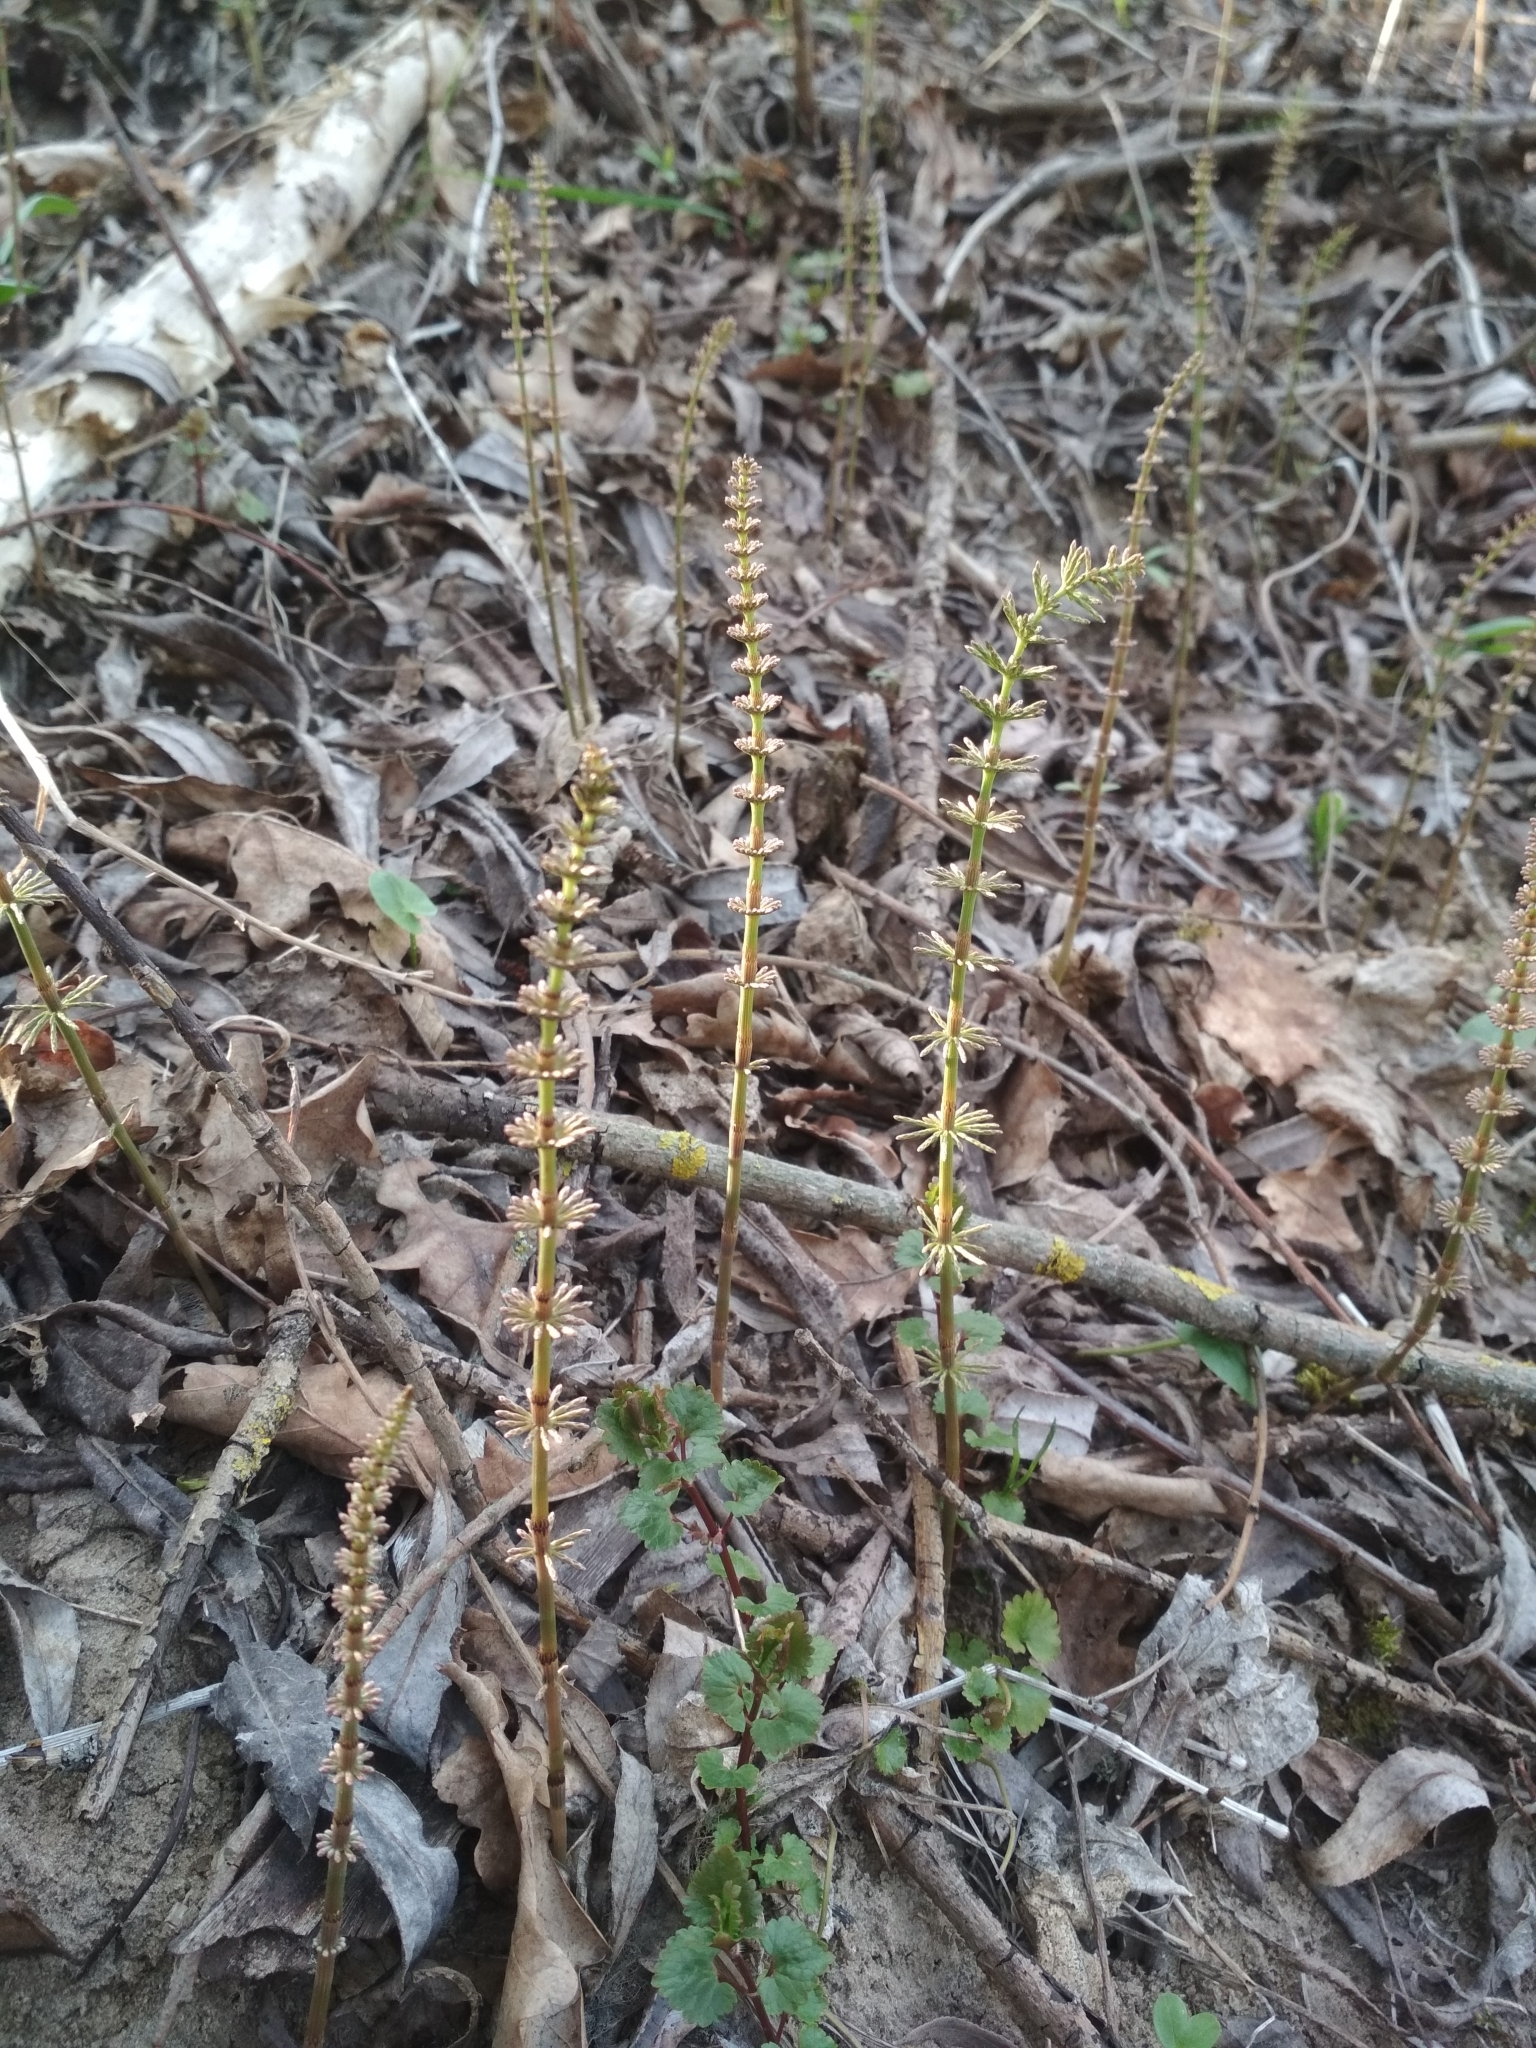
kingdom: Plantae
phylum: Tracheophyta
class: Polypodiopsida
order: Equisetales
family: Equisetaceae
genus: Equisetum
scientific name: Equisetum pratense
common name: Meadow horsetail
